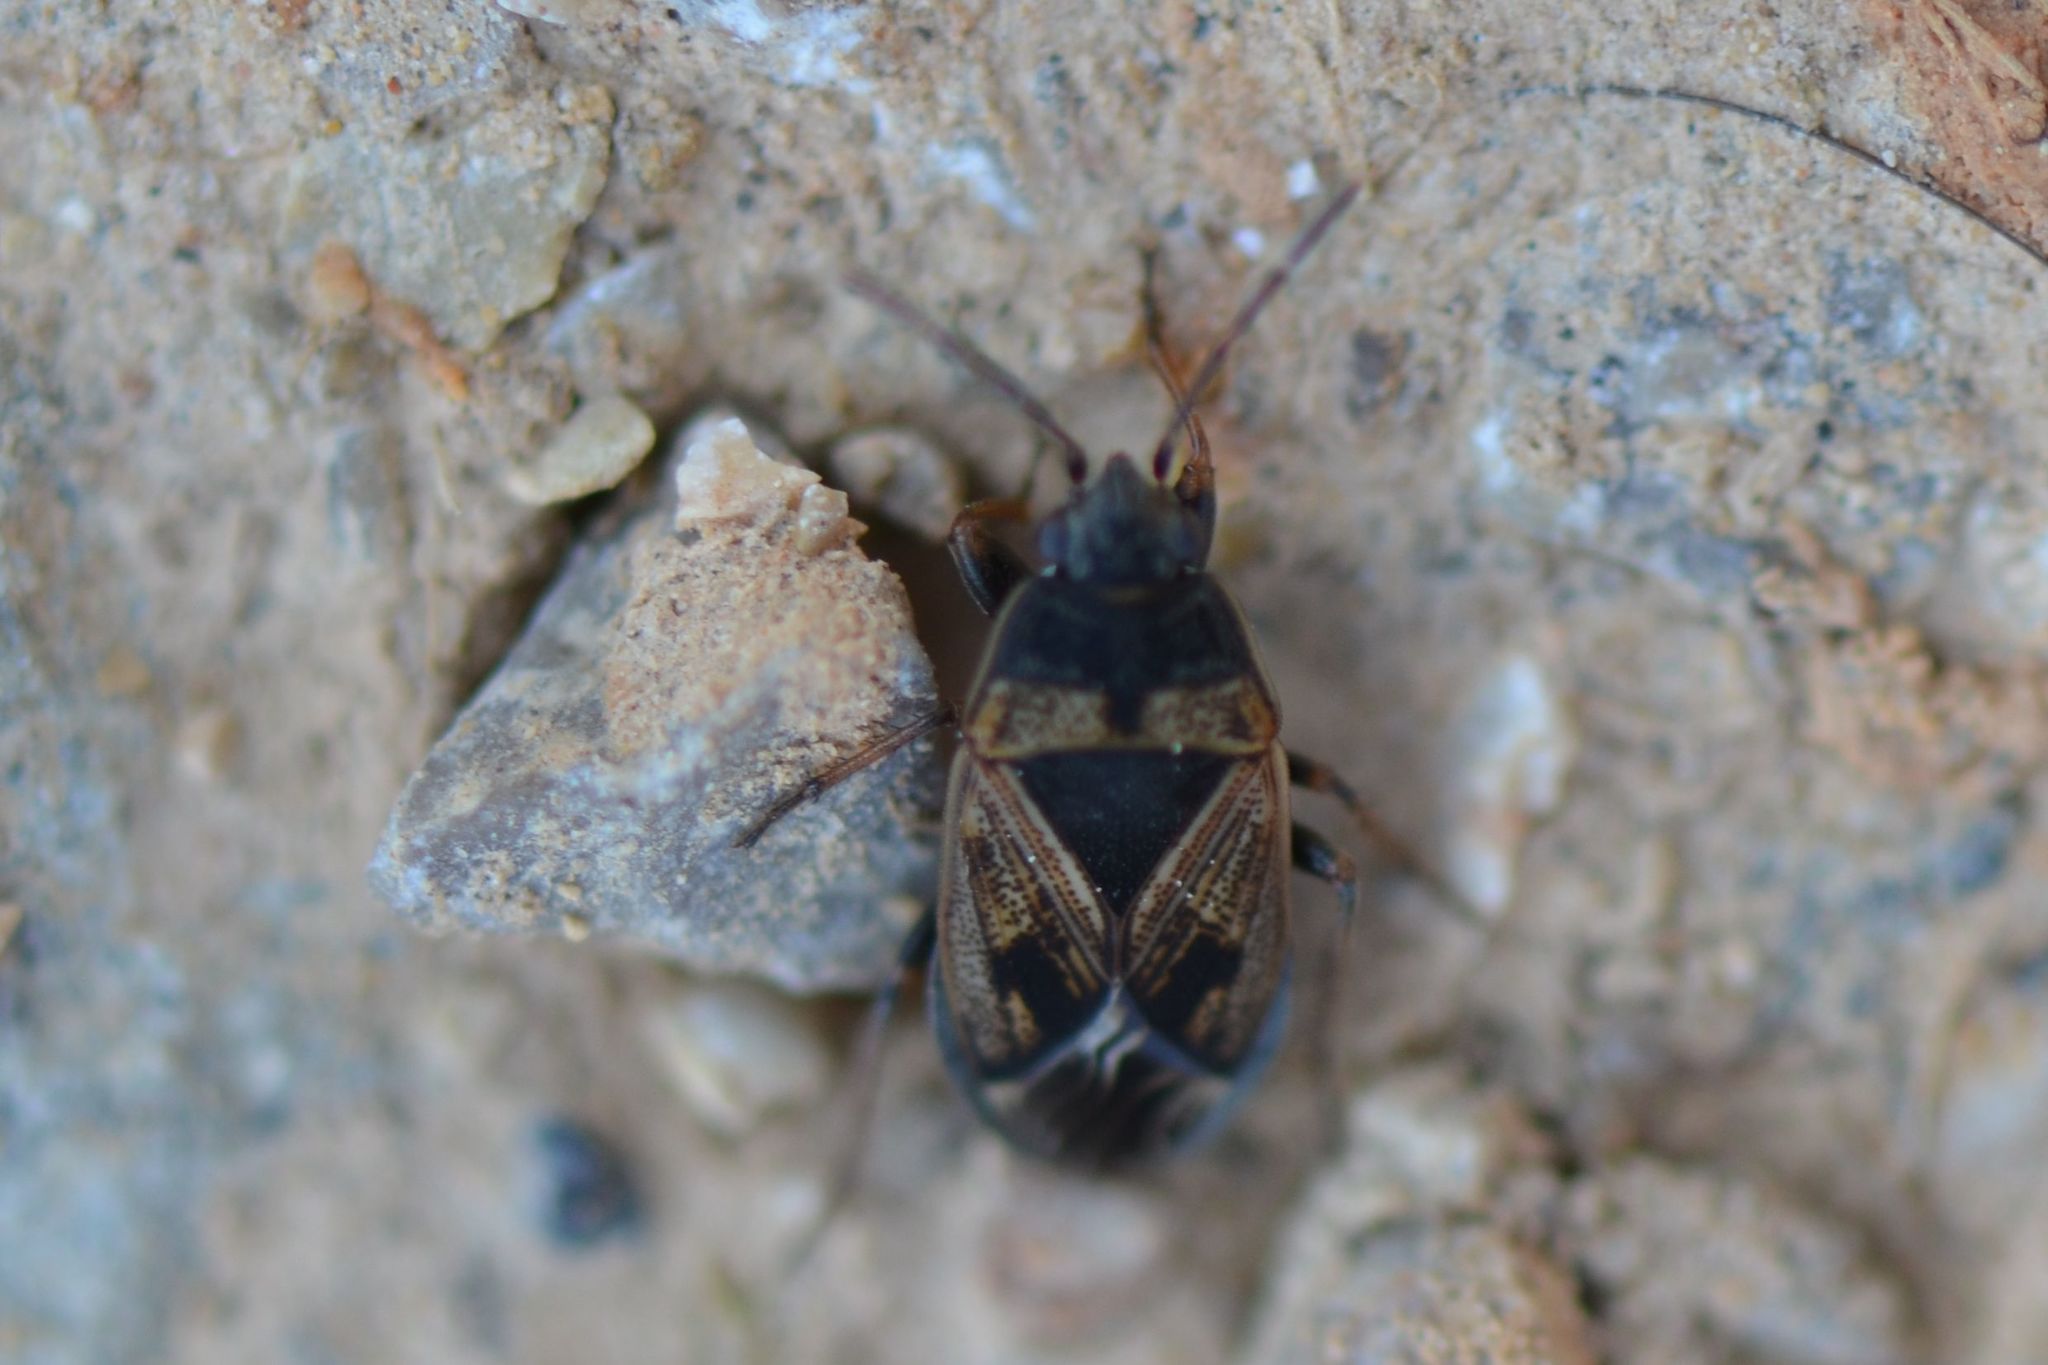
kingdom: Animalia
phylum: Arthropoda
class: Insecta
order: Hemiptera
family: Rhyparochromidae
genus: Trapezonotus
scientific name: Trapezonotus dispar
